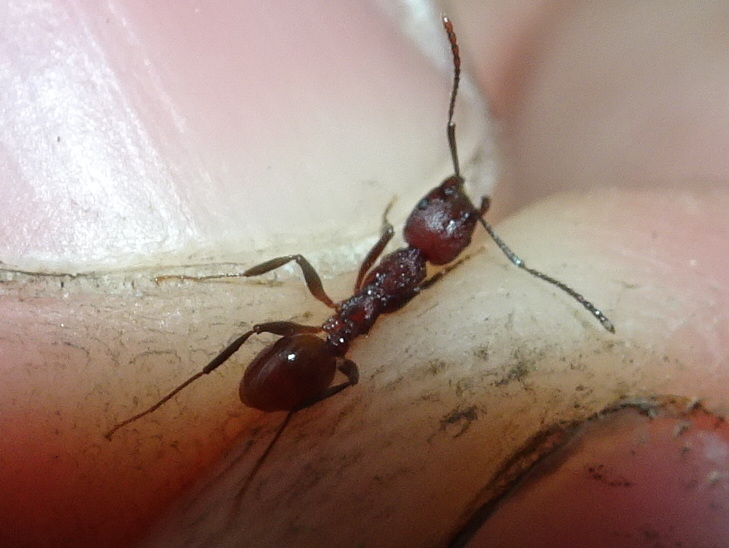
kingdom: Animalia
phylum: Arthropoda
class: Insecta
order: Hymenoptera
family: Formicidae
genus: Aphaenogaster
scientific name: Aphaenogaster tennesseensis
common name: Tennessee thread-waisted ant
